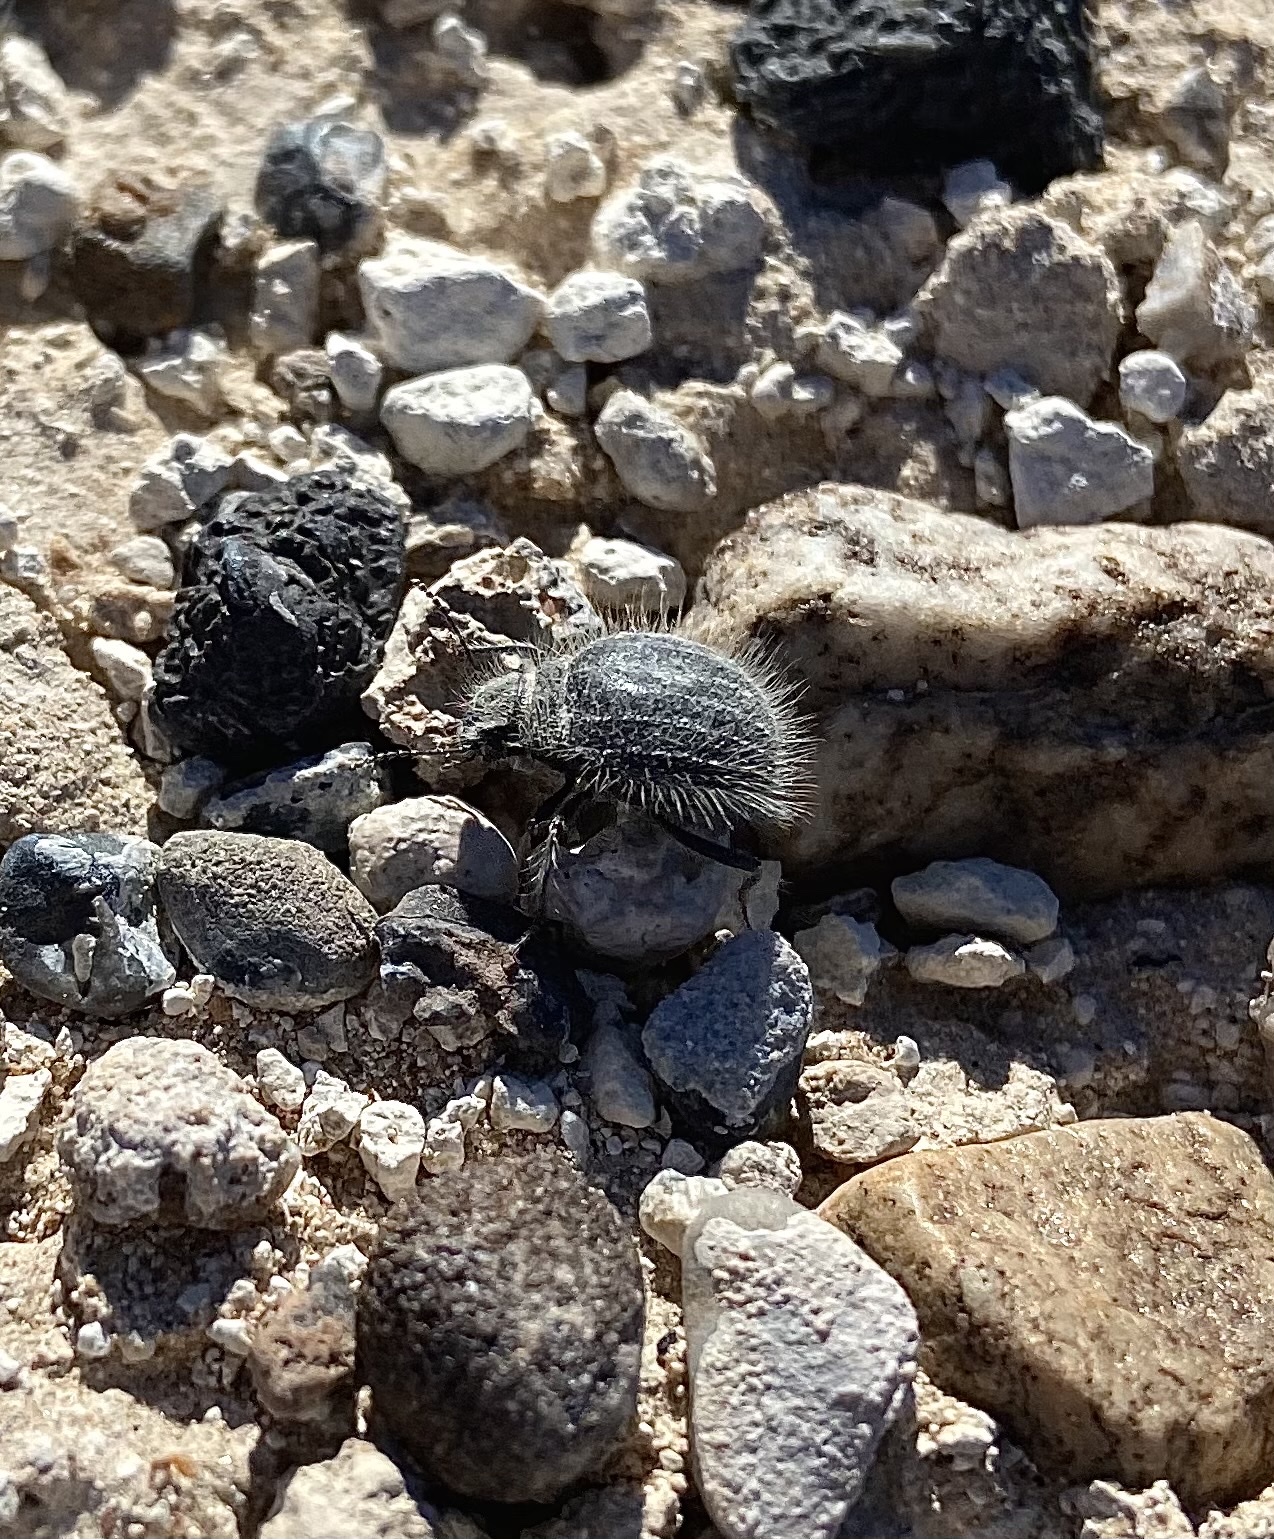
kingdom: Animalia
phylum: Arthropoda
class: Insecta
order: Coleoptera
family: Tenebrionidae
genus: Edrotes
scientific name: Edrotes ventricosus
